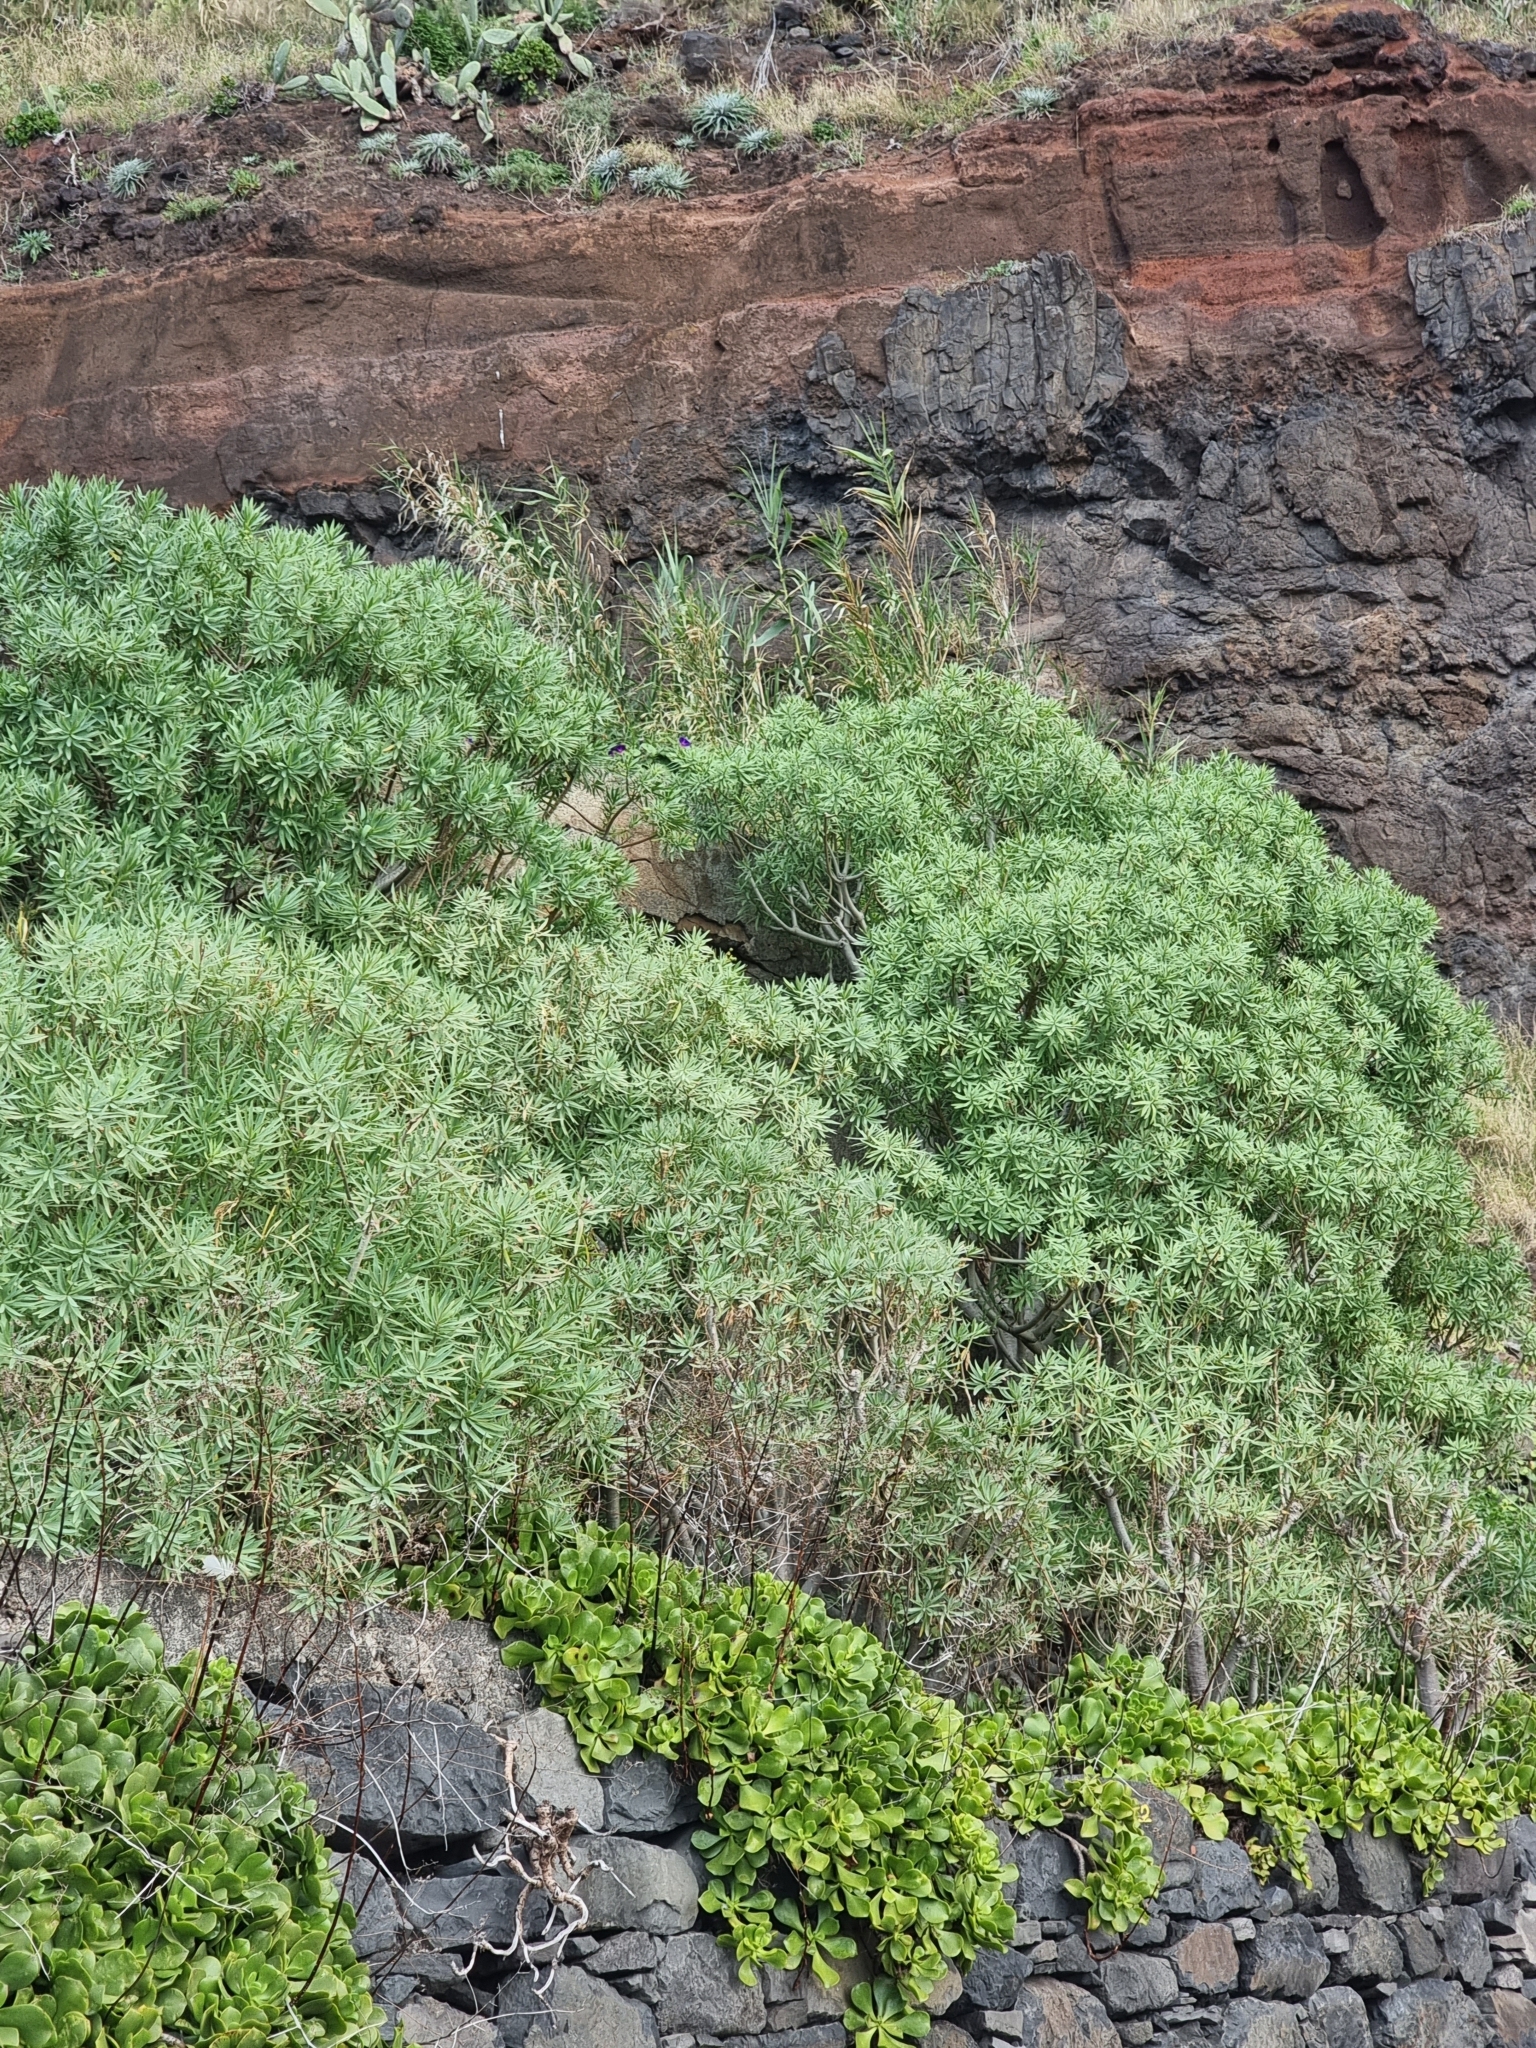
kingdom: Plantae
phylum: Tracheophyta
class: Magnoliopsida
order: Malpighiales
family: Euphorbiaceae
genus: Euphorbia
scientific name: Euphorbia piscatoria
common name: Fish-stunning spurge
